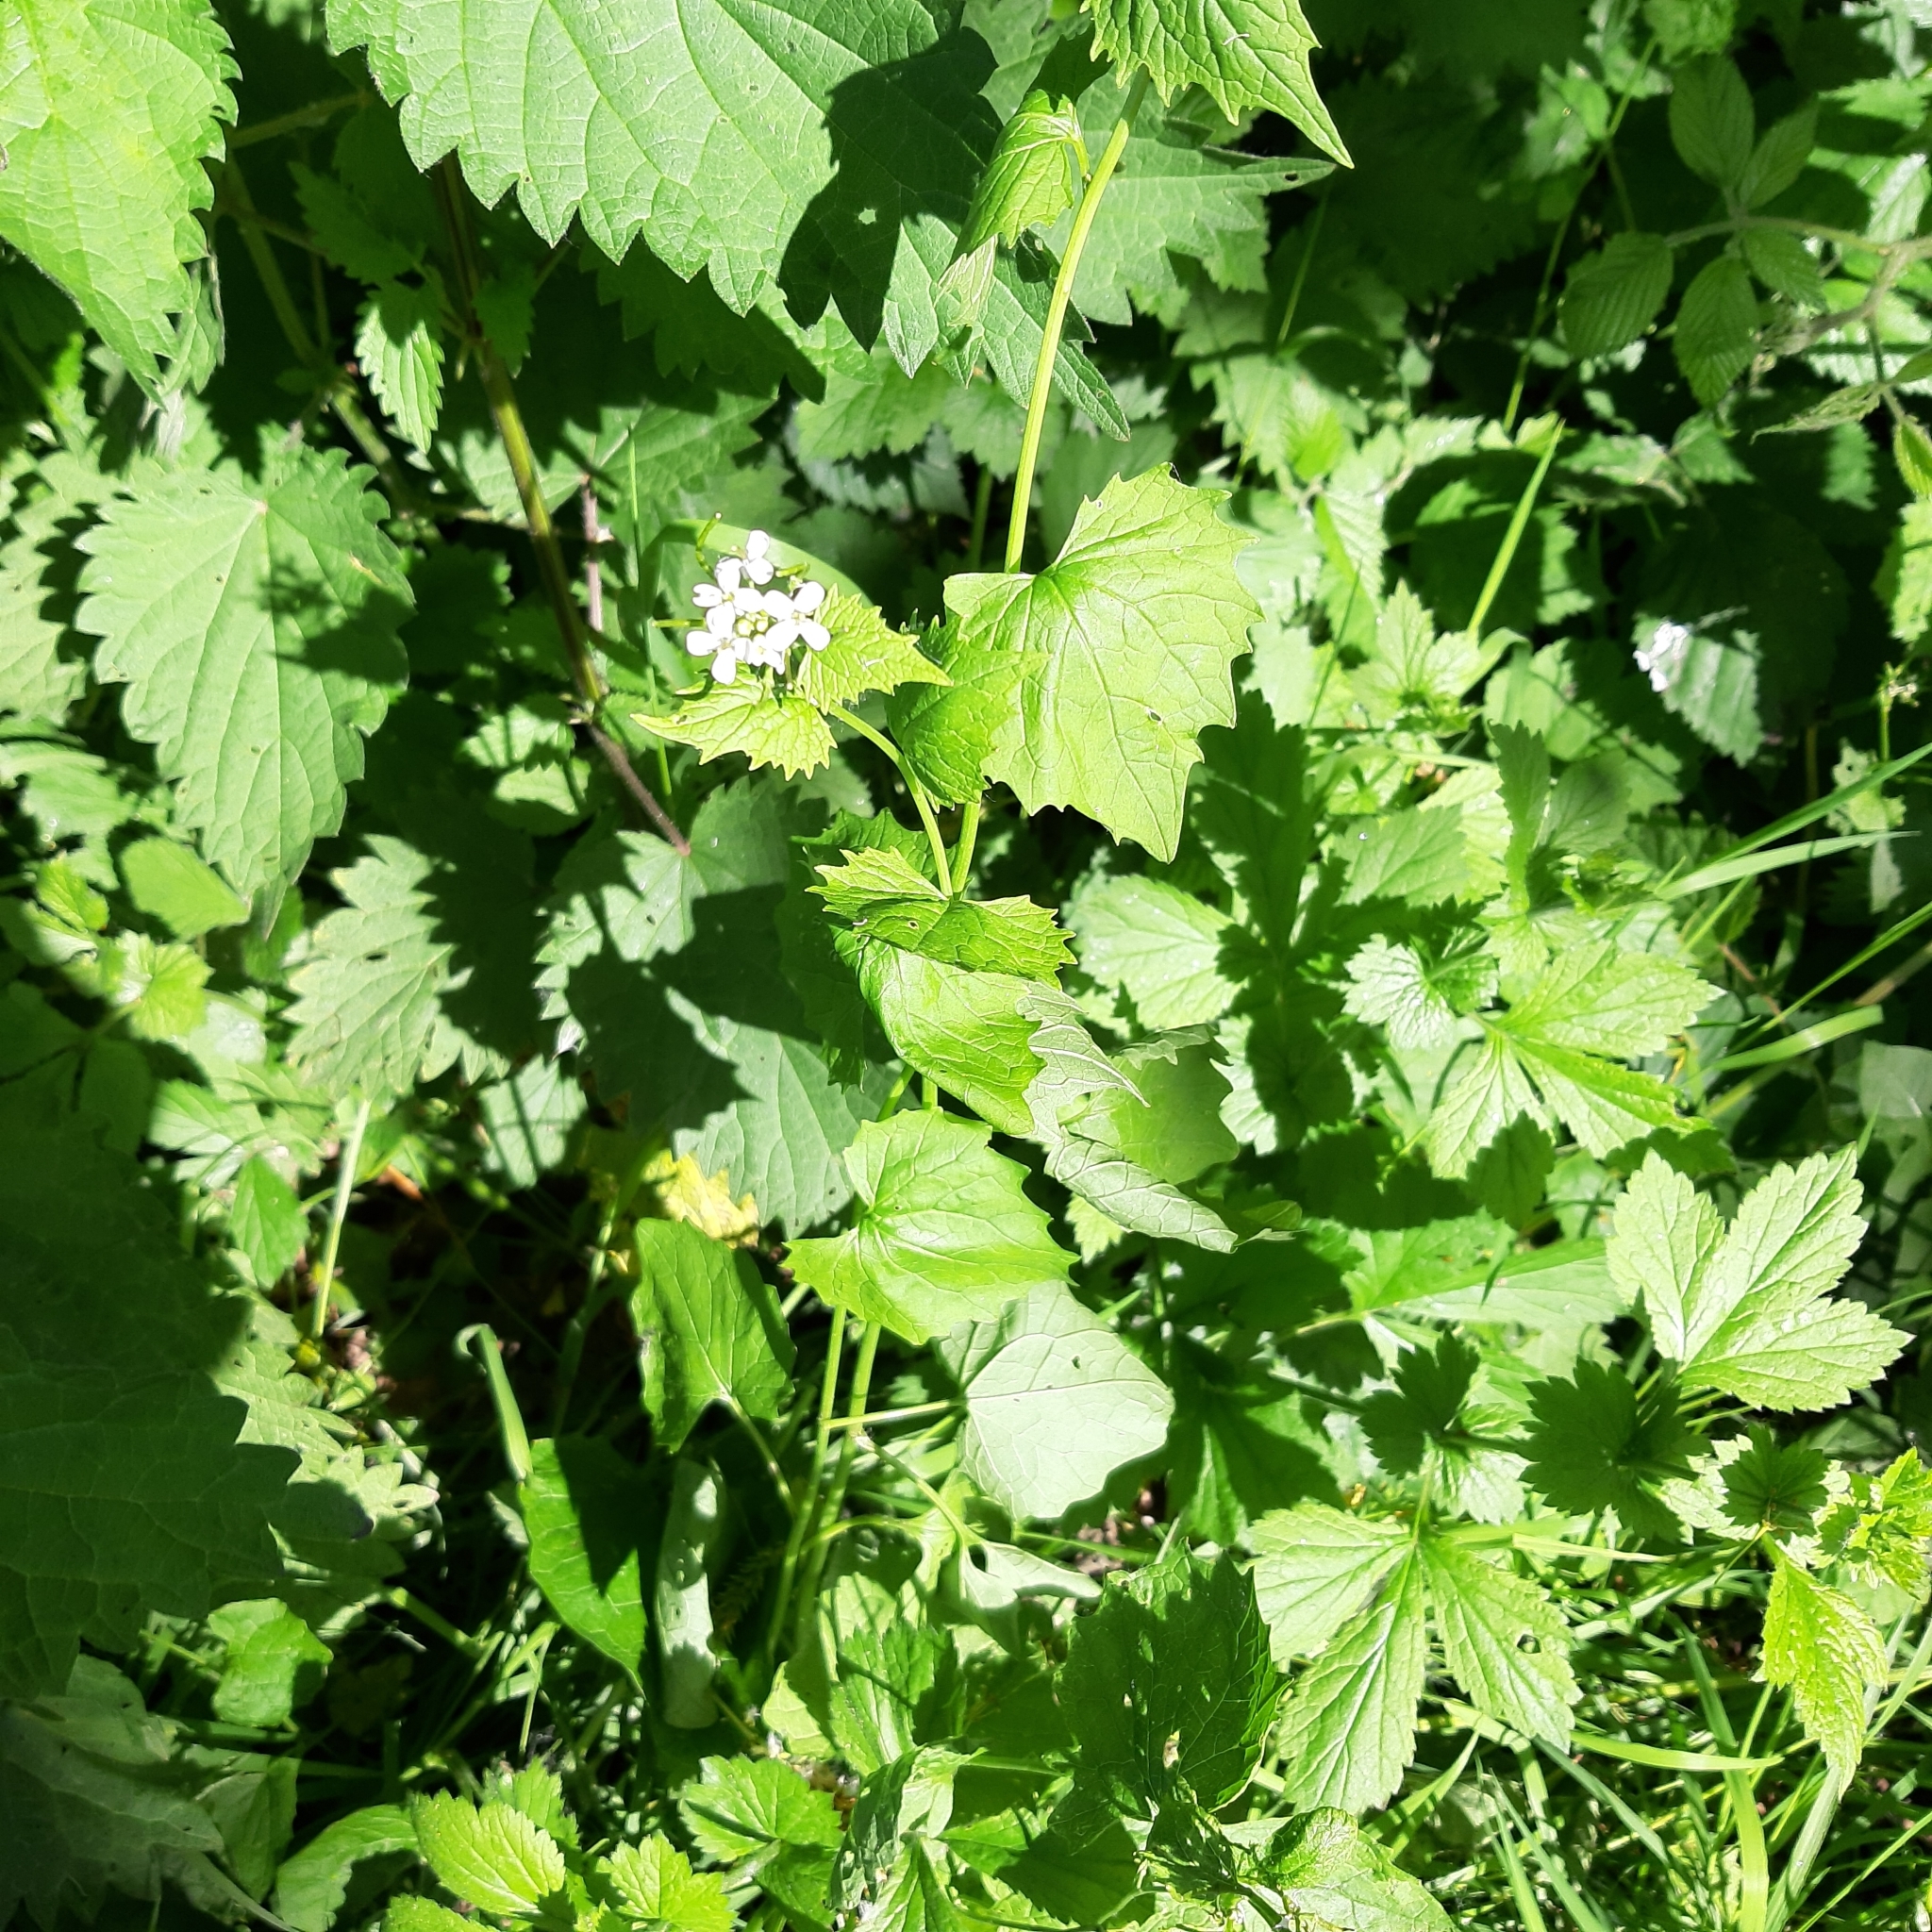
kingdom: Plantae
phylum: Tracheophyta
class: Magnoliopsida
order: Brassicales
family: Brassicaceae
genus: Alliaria
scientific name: Alliaria petiolata
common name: Garlic mustard
